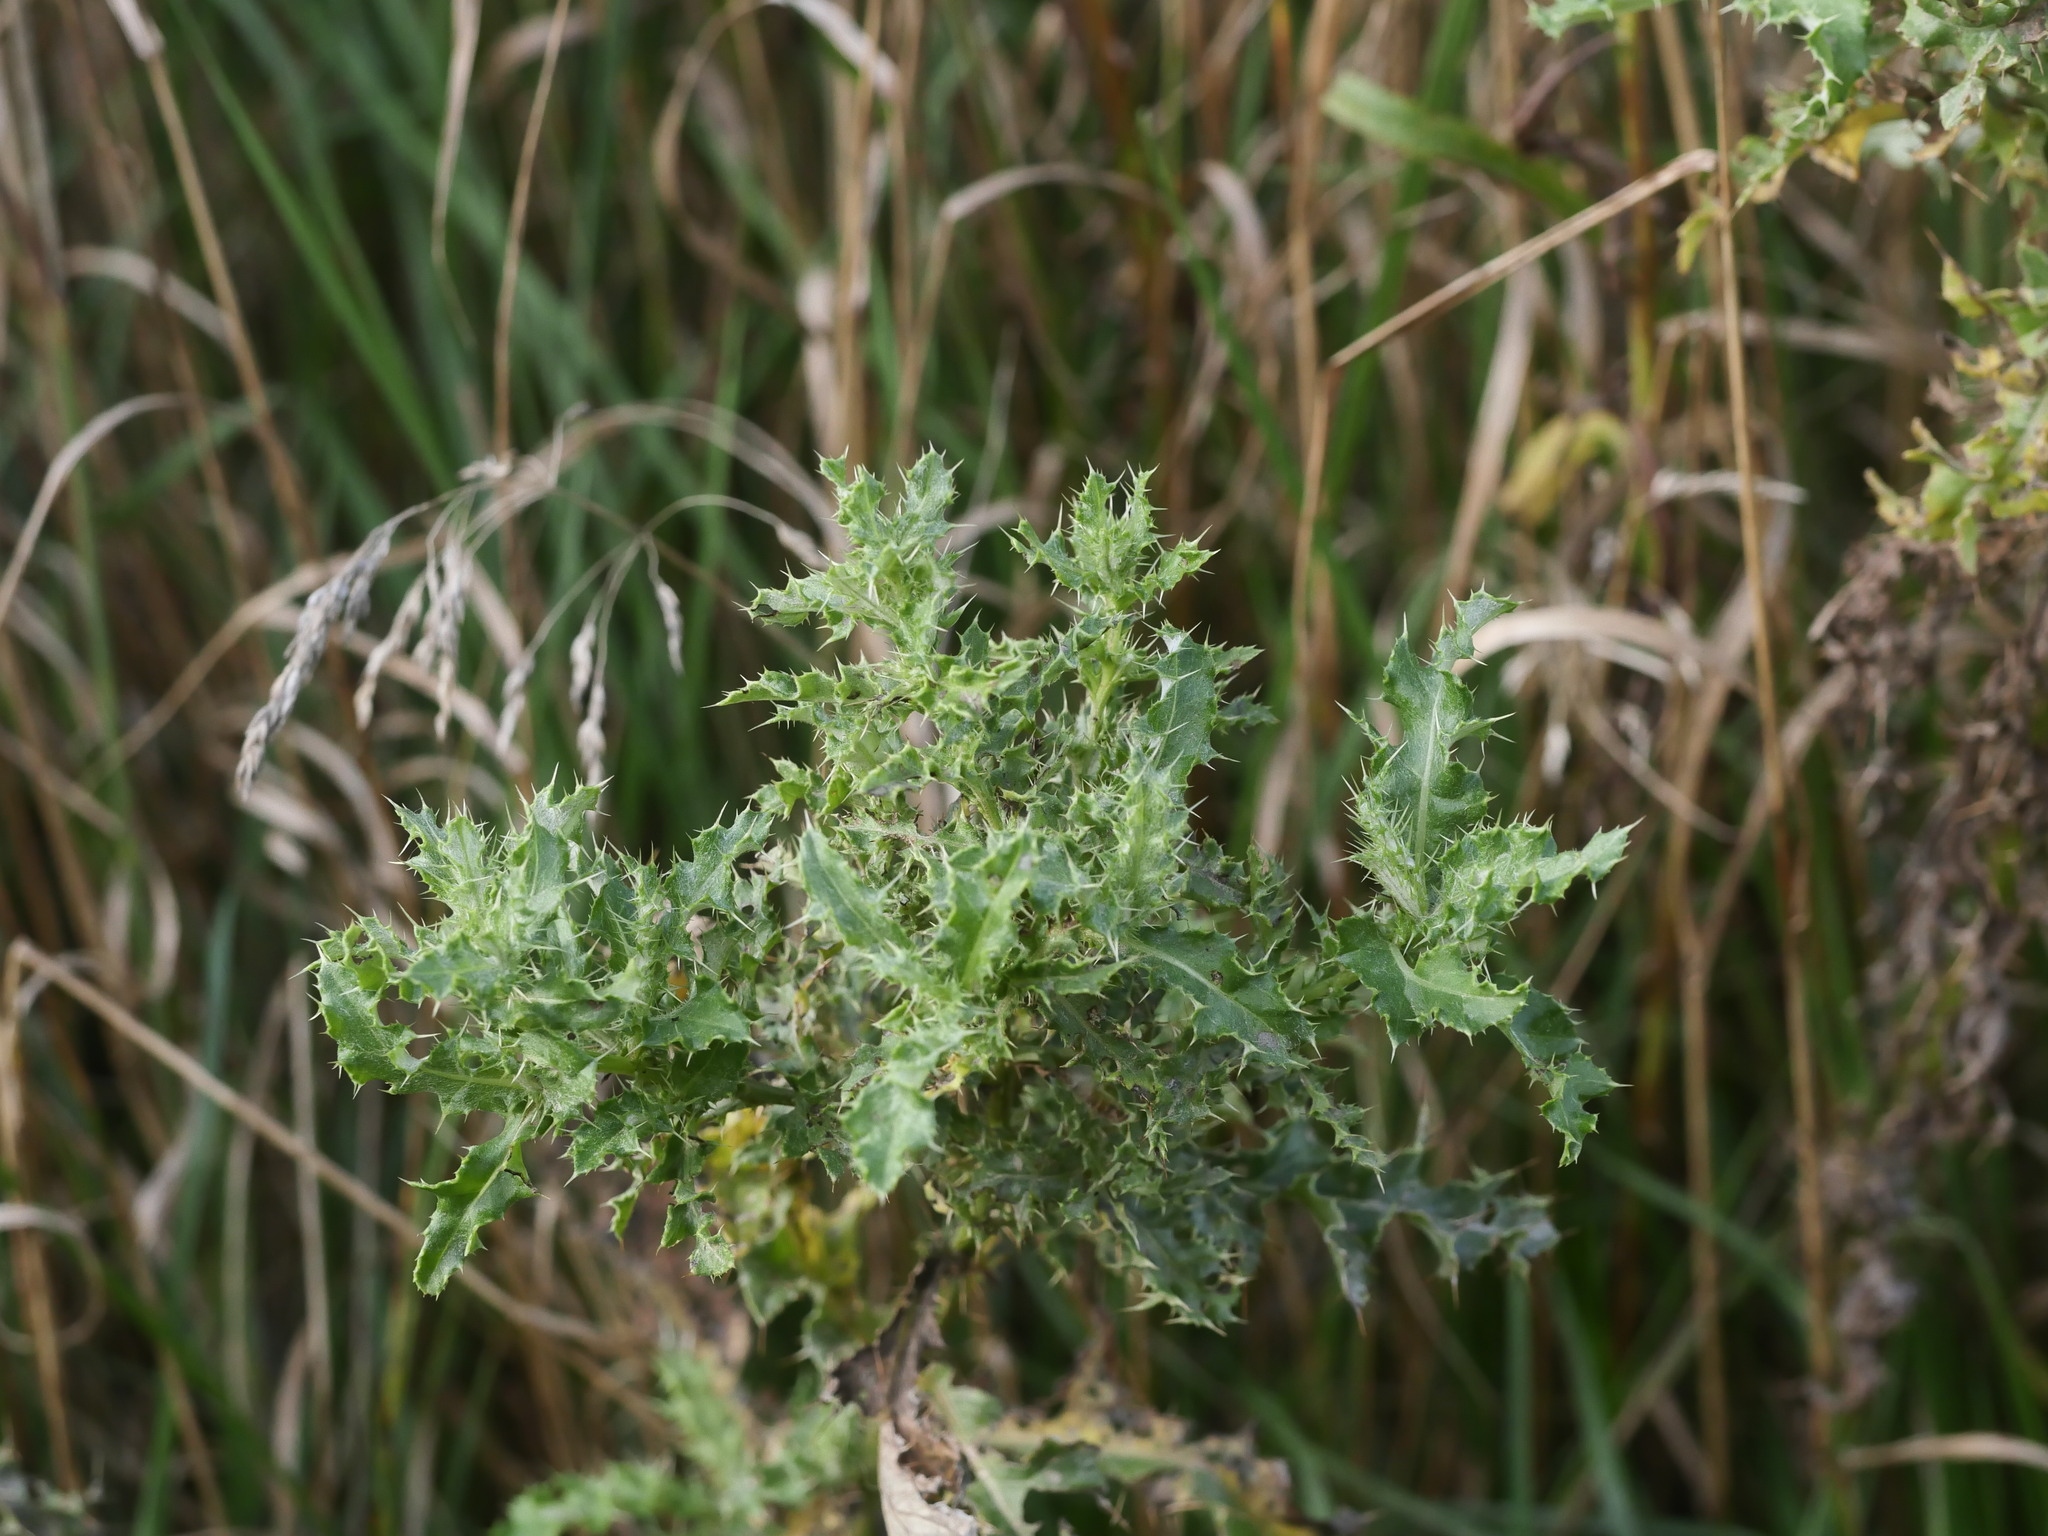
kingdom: Plantae
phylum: Tracheophyta
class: Magnoliopsida
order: Asterales
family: Asteraceae
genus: Cirsium
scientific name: Cirsium arvense
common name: Creeping thistle
